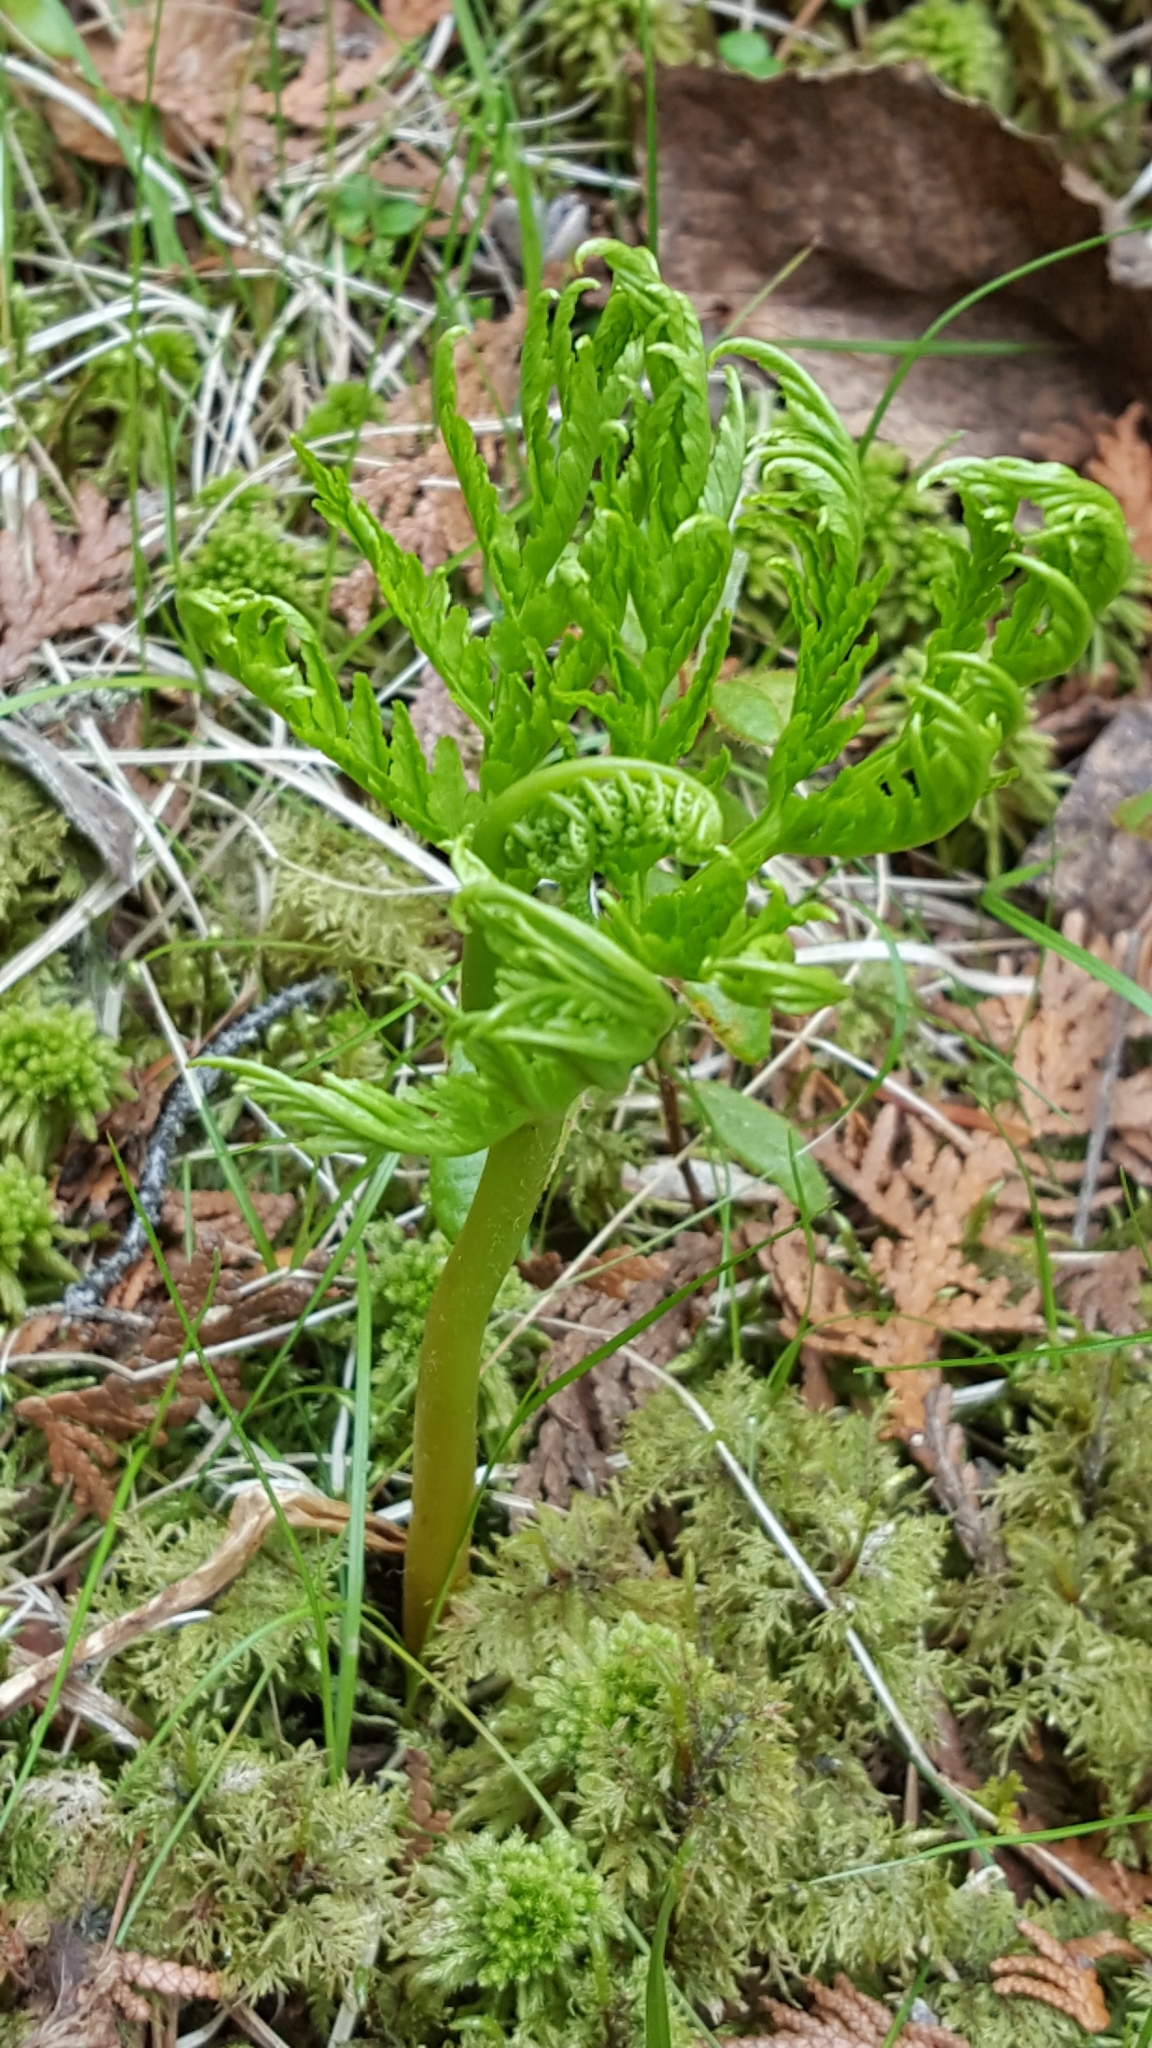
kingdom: Plantae
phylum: Tracheophyta
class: Polypodiopsida
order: Ophioglossales
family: Ophioglossaceae
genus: Botrypus
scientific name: Botrypus virginianus
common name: Common grapefern
